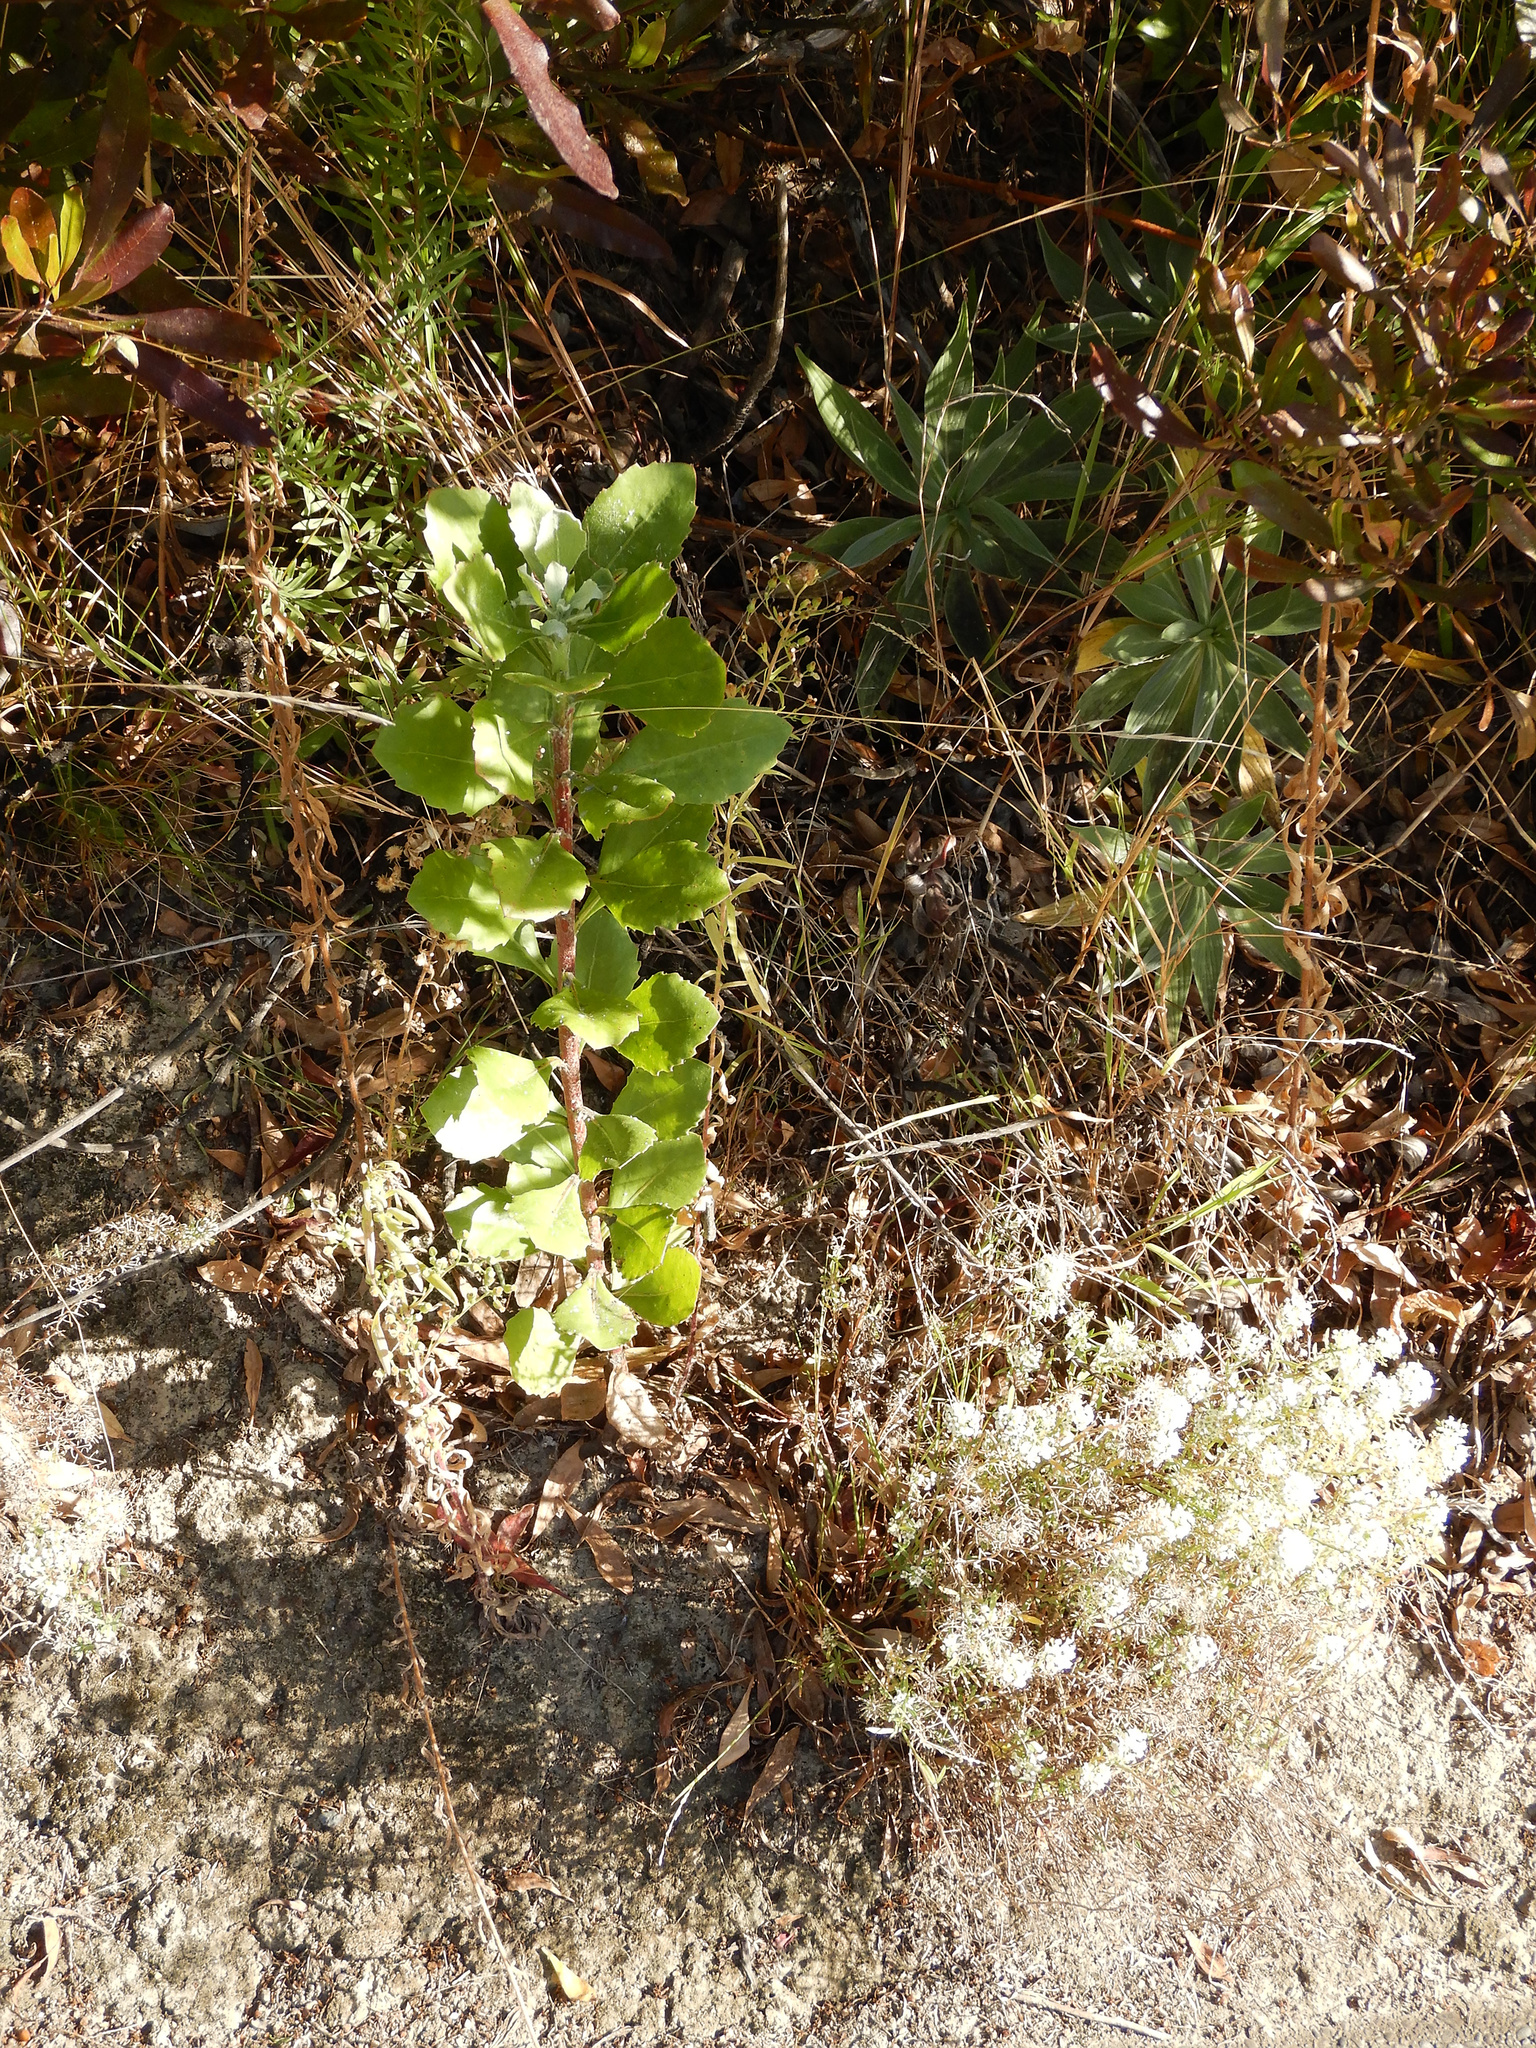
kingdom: Plantae
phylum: Tracheophyta
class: Magnoliopsida
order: Asterales
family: Asteraceae
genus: Osteospermum
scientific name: Osteospermum moniliferum
